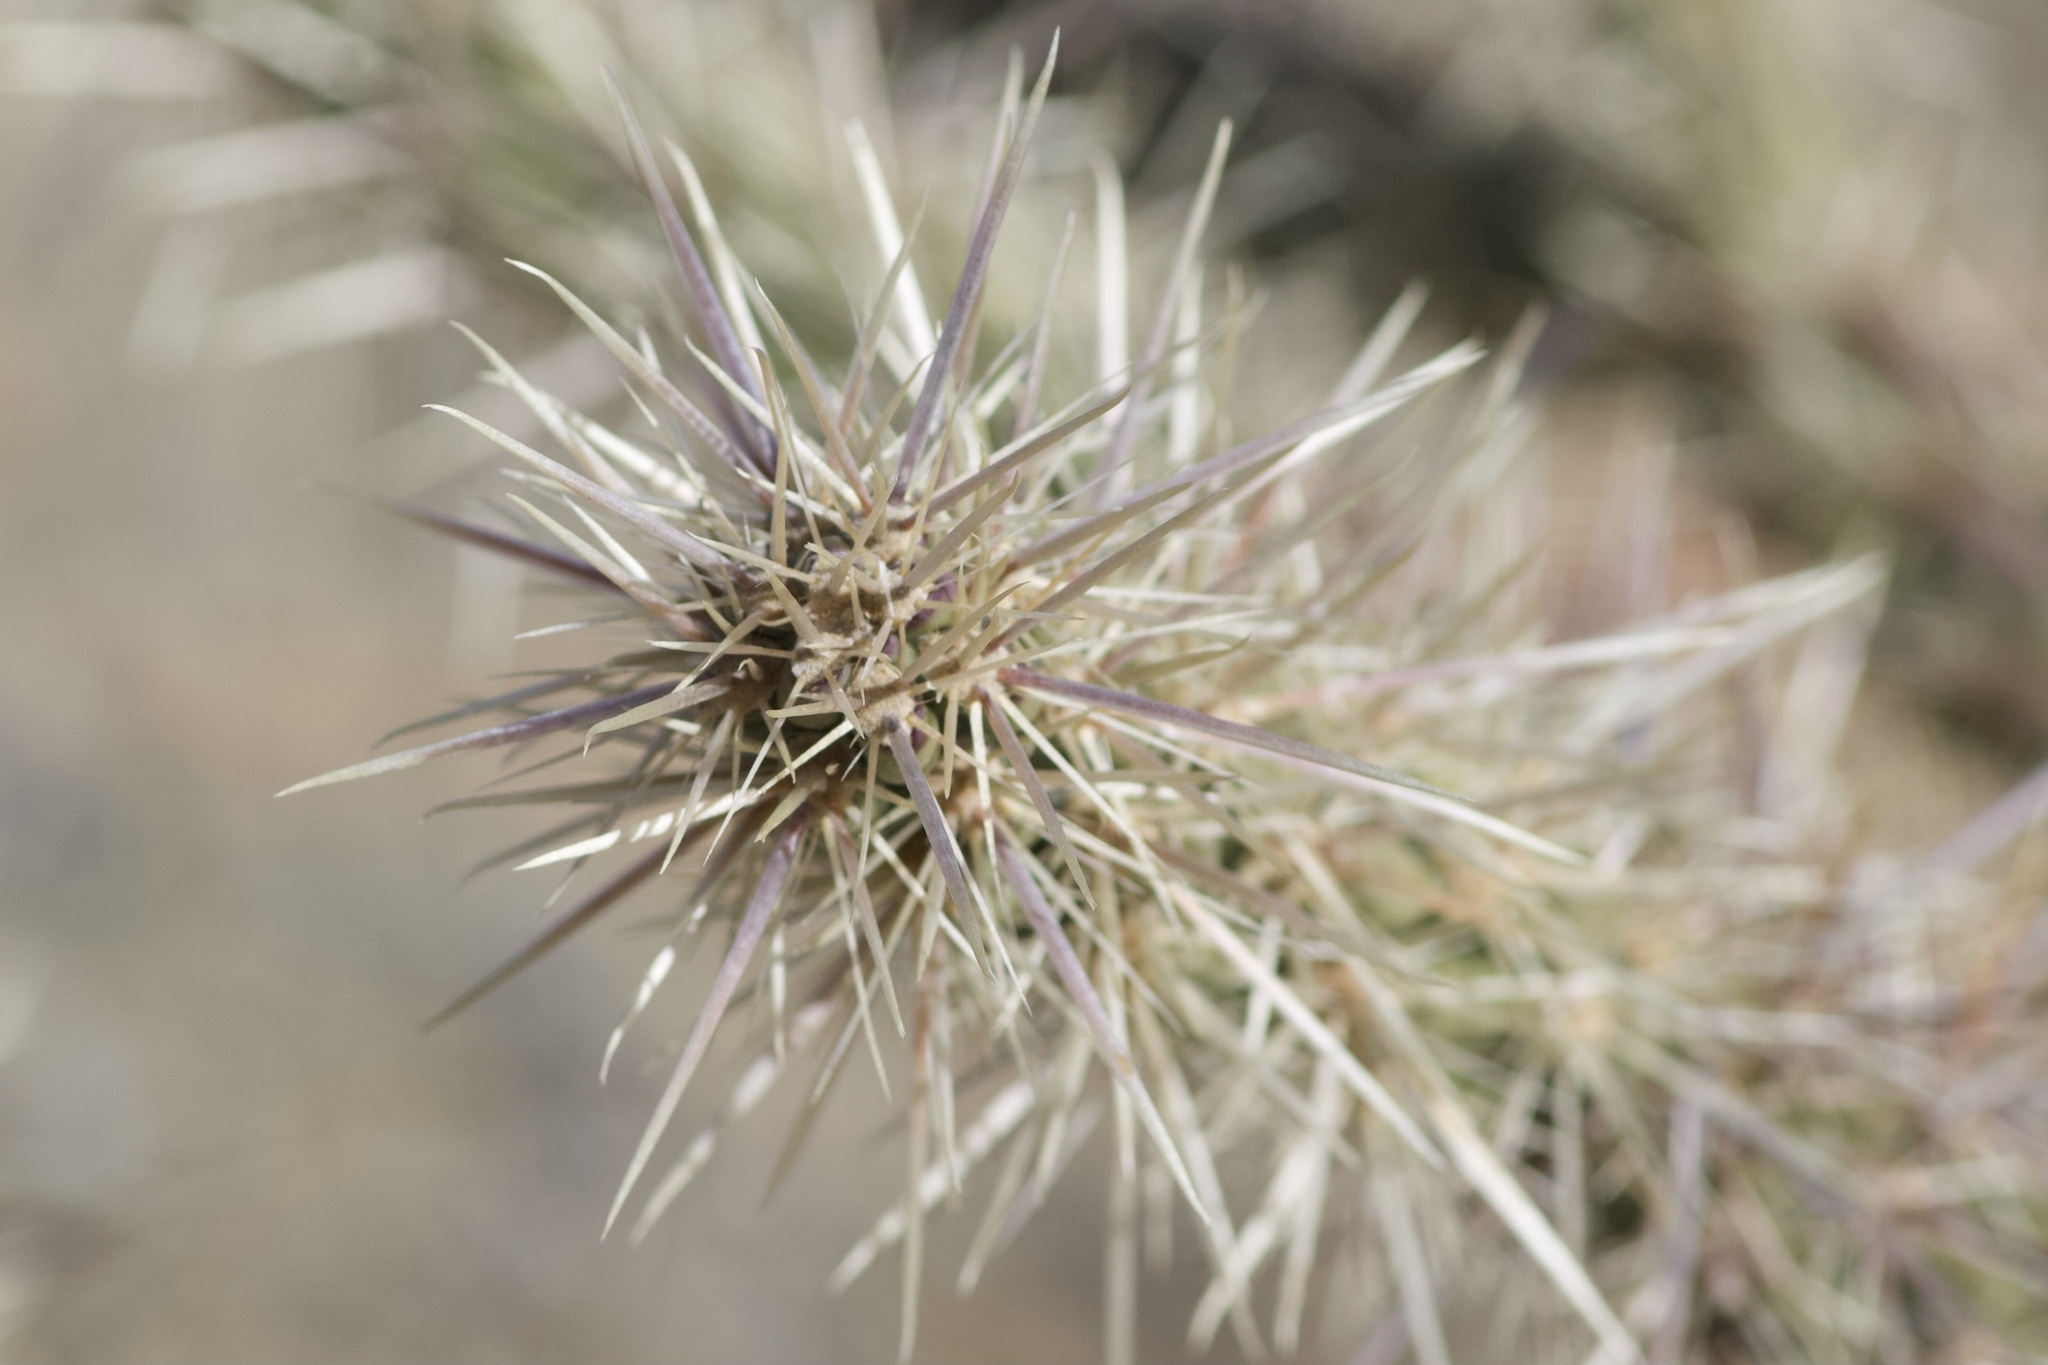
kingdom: Plantae
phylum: Tracheophyta
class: Magnoliopsida
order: Caryophyllales
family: Cactaceae
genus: Cylindropuntia
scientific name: Cylindropuntia acanthocarpa
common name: Buckhorn cholla
